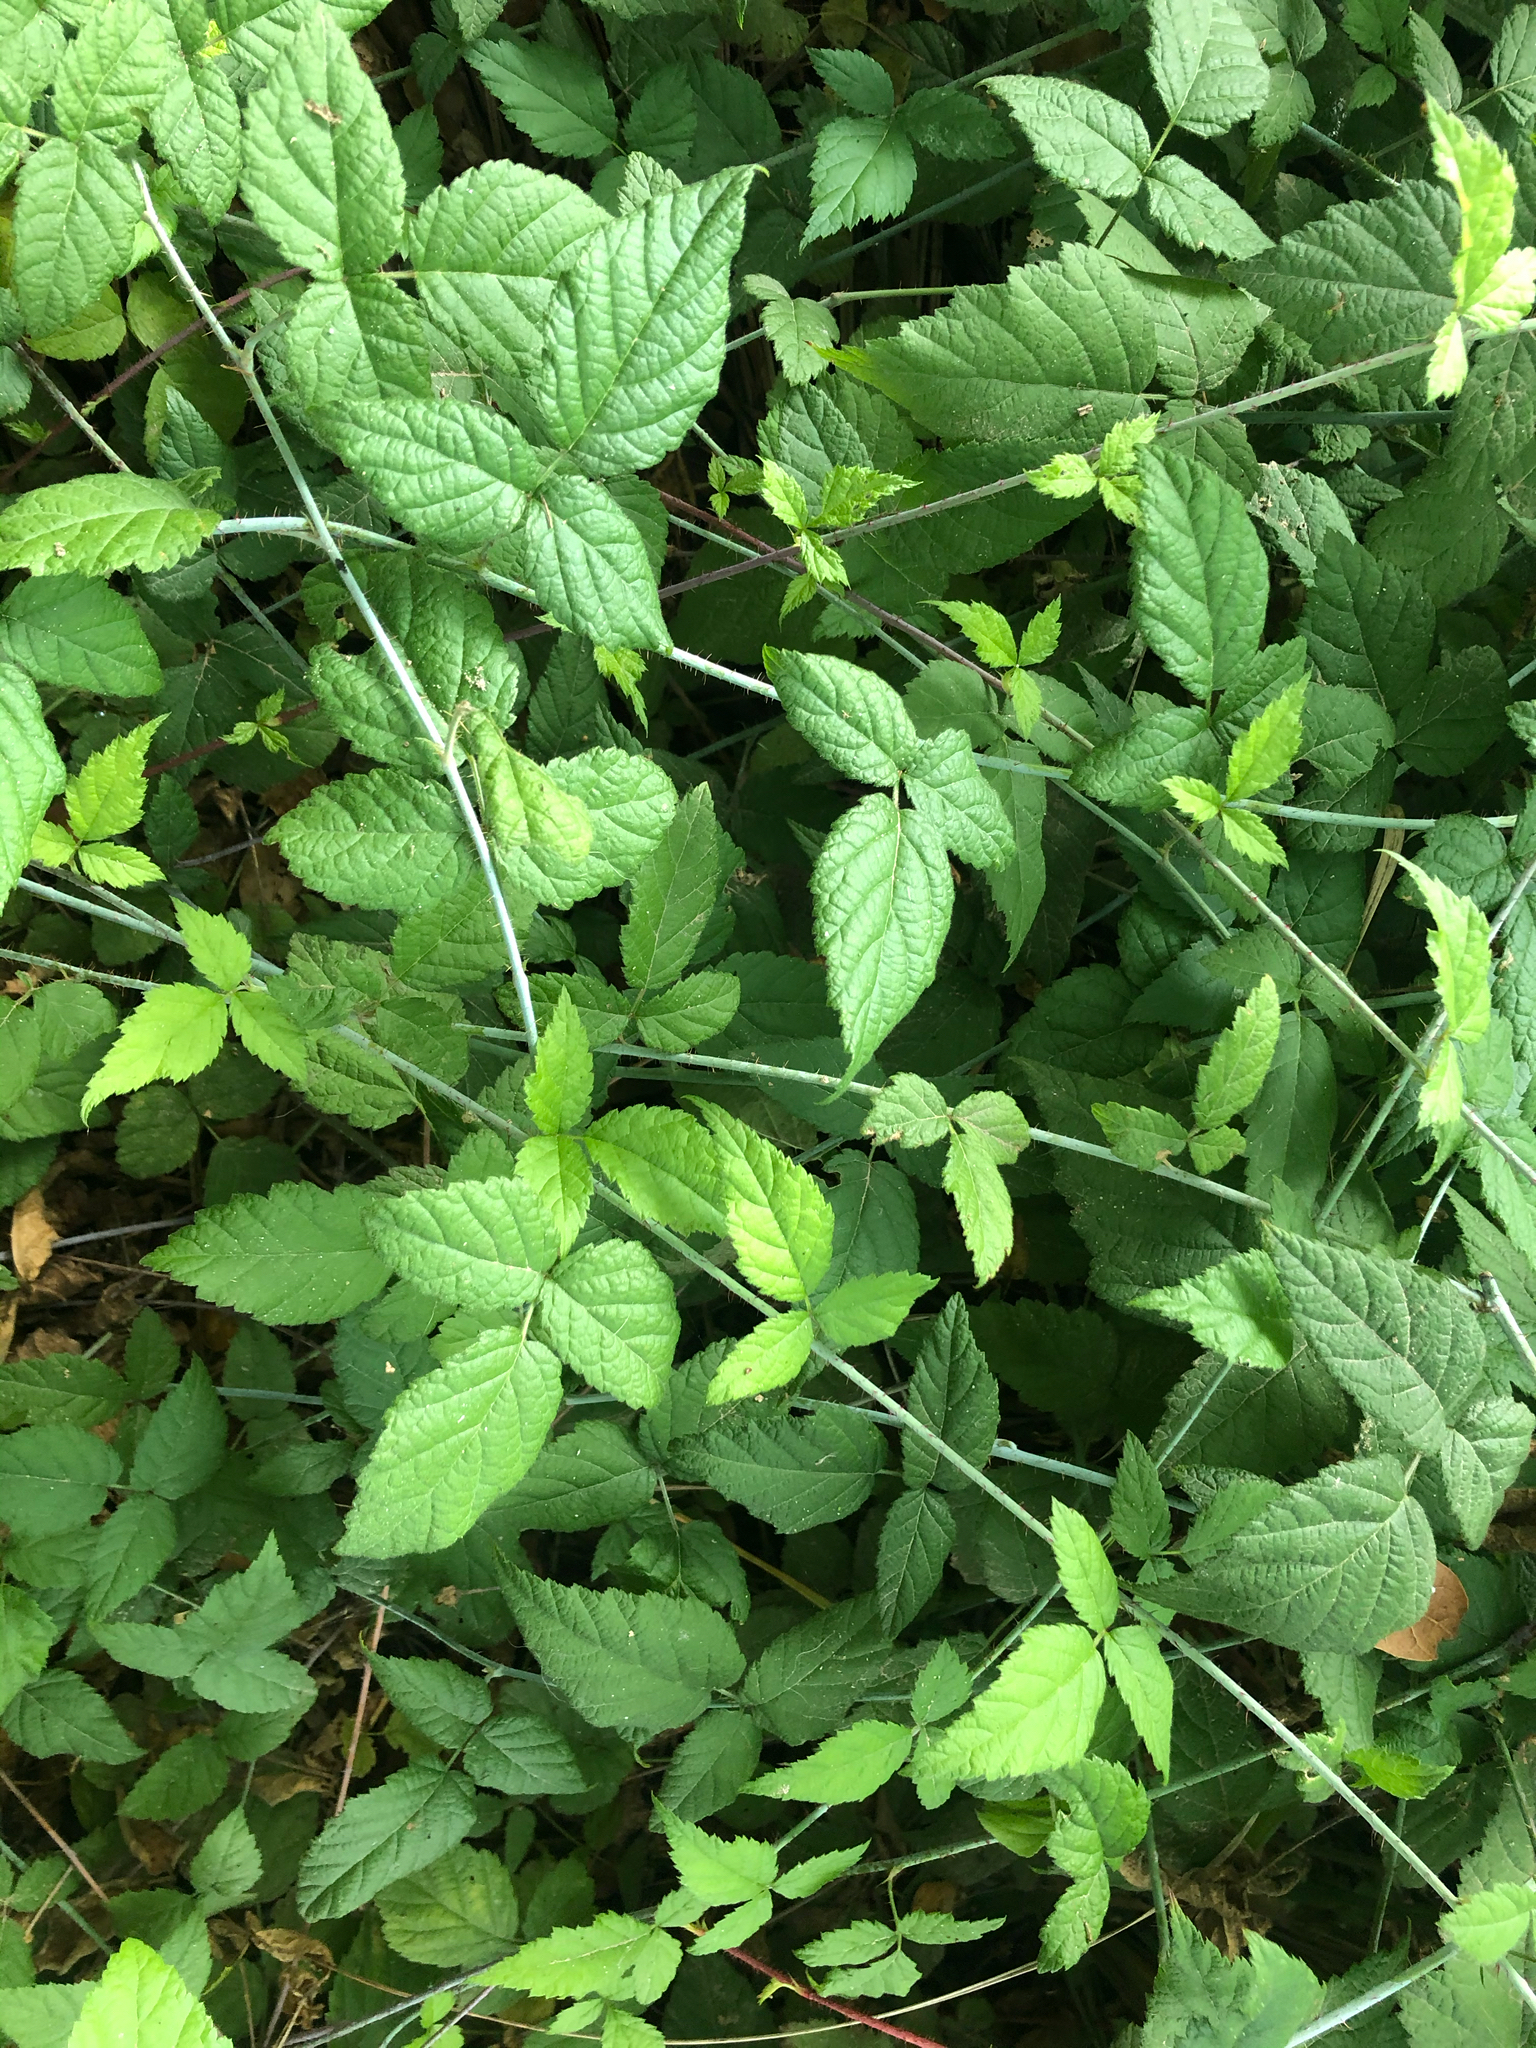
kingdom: Plantae
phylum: Tracheophyta
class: Magnoliopsida
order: Rosales
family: Rosaceae
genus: Rubus
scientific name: Rubus ursinus
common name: Pacific blackberry
